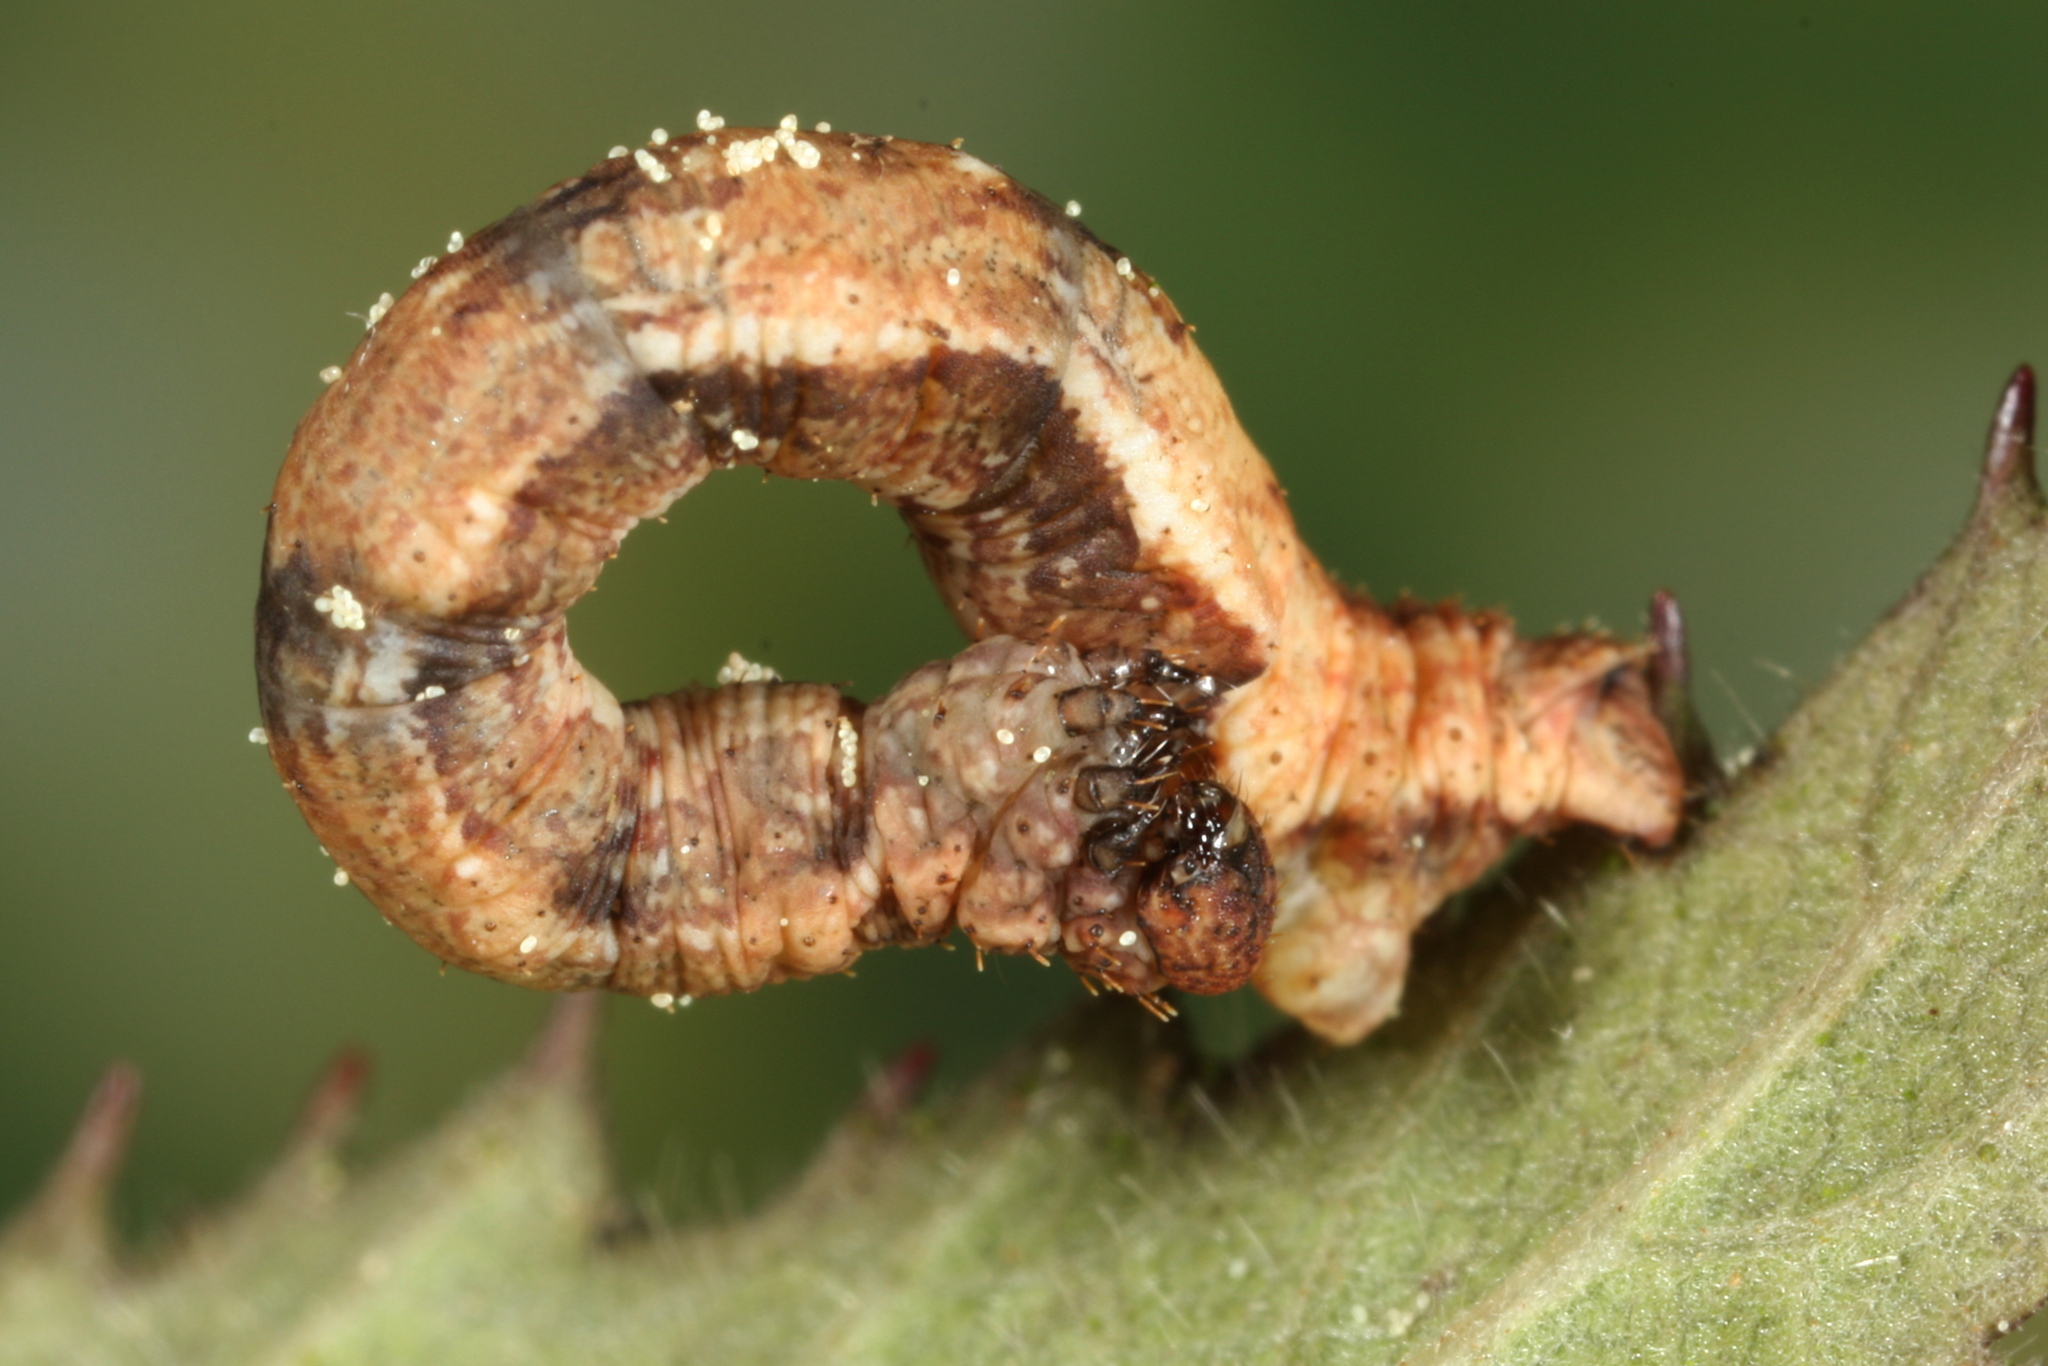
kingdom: Animalia
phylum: Arthropoda
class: Insecta
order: Lepidoptera
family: Geometridae
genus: Idaea
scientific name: Idaea aversata
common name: Riband wave
